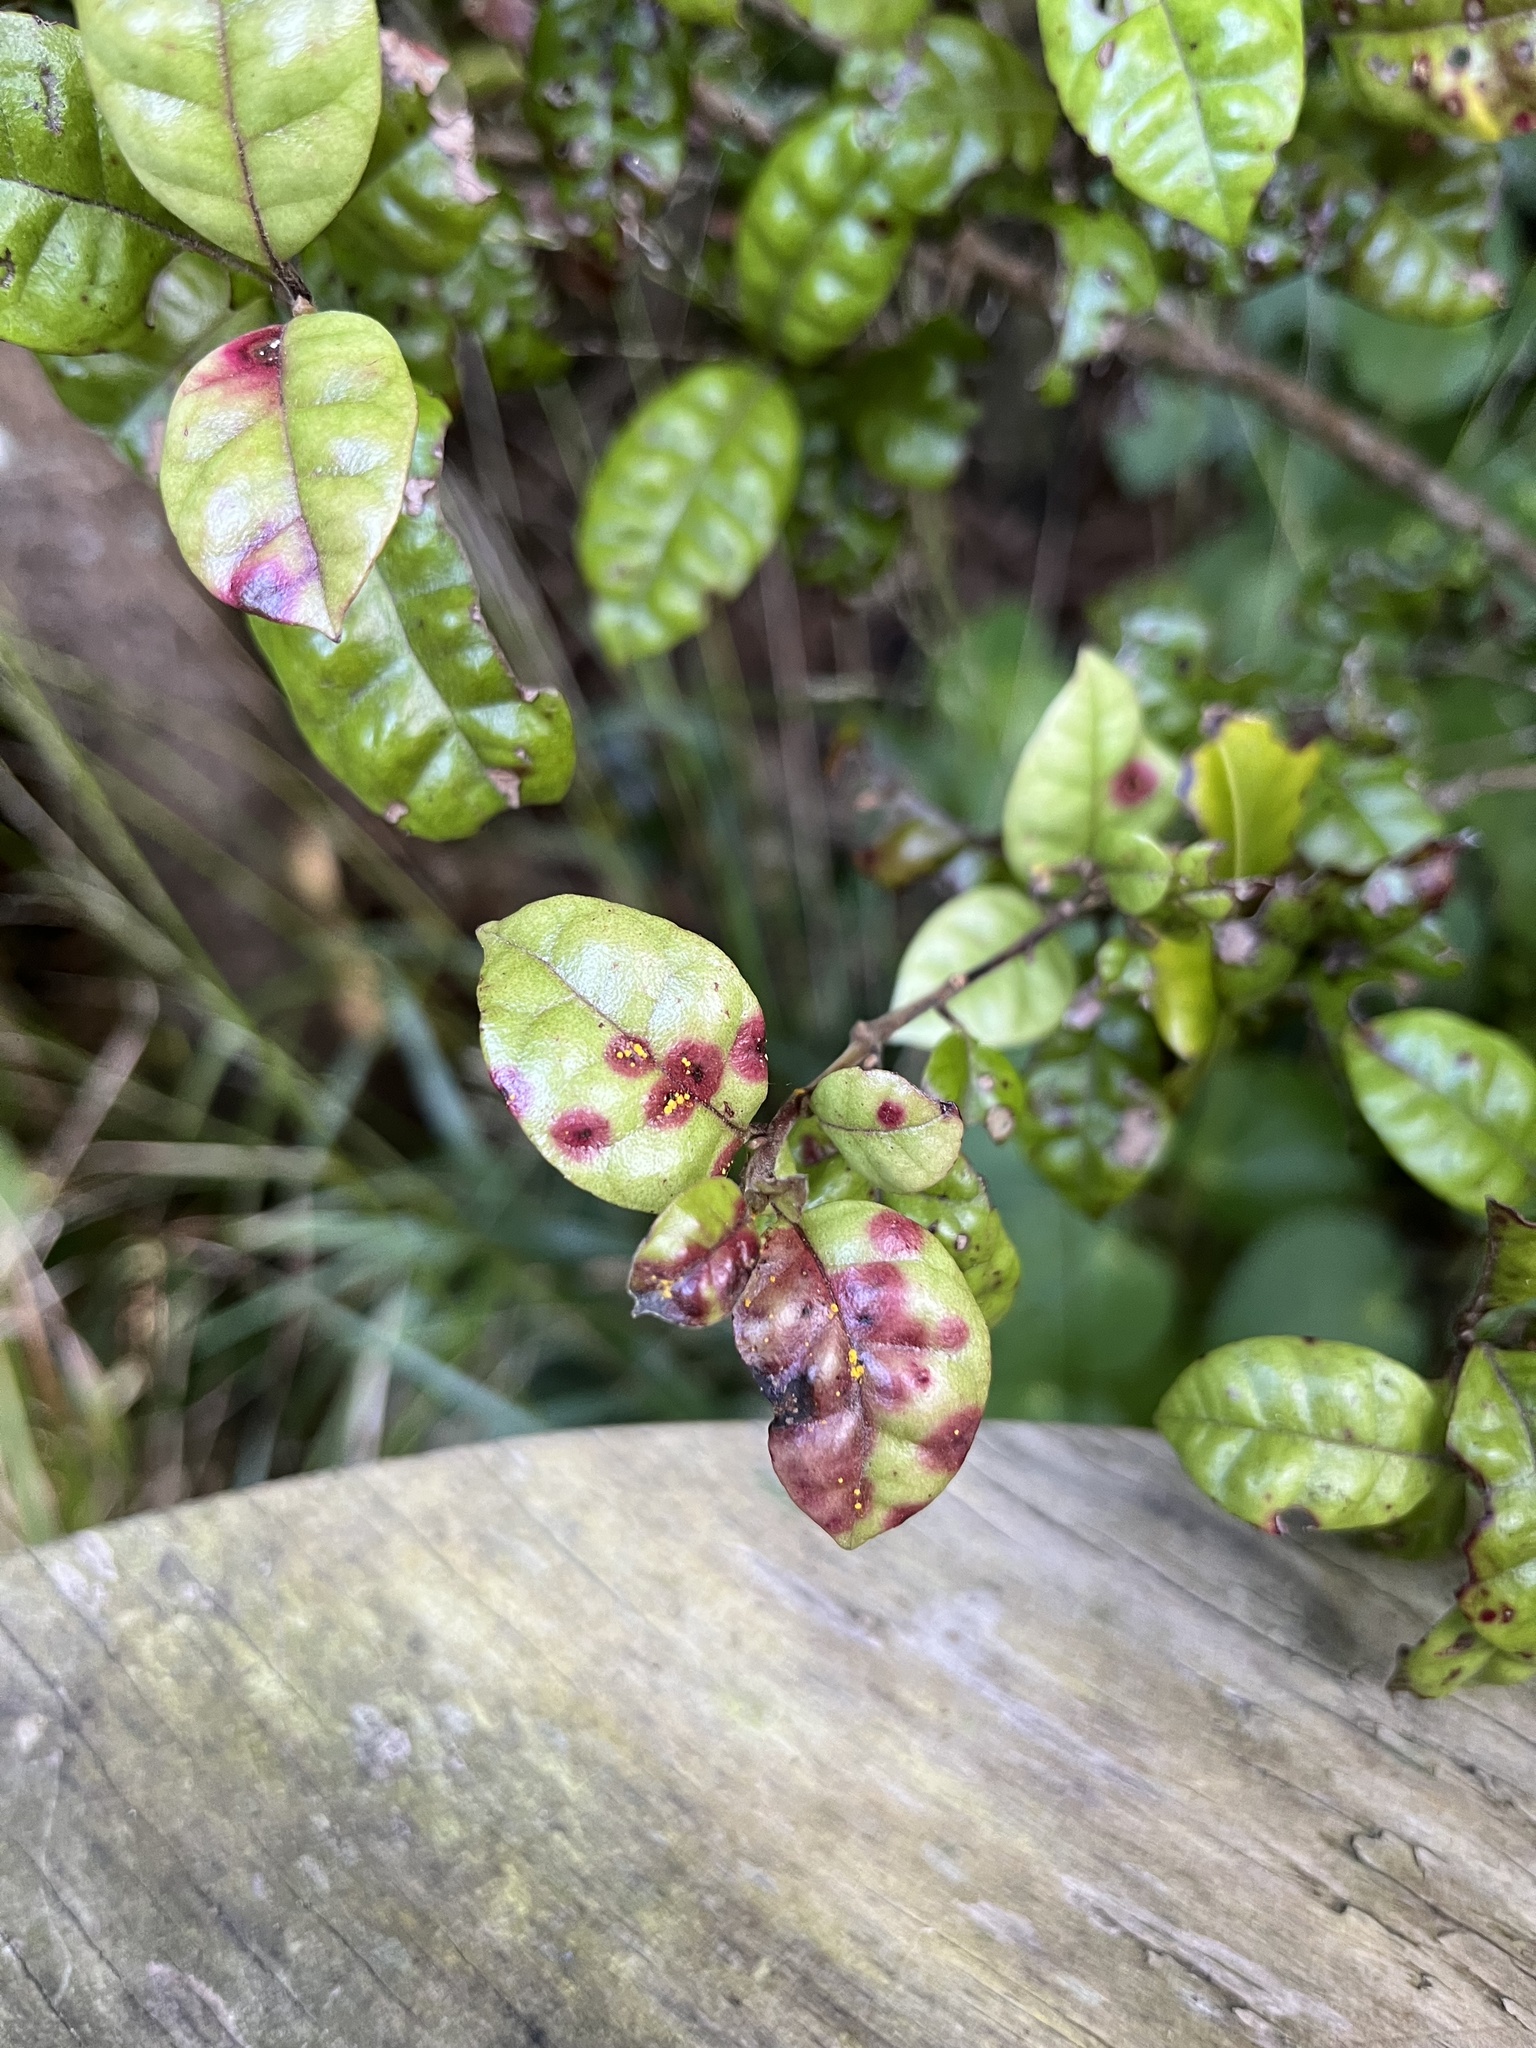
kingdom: Fungi
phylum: Basidiomycota
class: Pucciniomycetes
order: Pucciniales
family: Sphaerophragmiaceae
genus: Austropuccinia
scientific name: Austropuccinia psidii
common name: Myrtle rust
